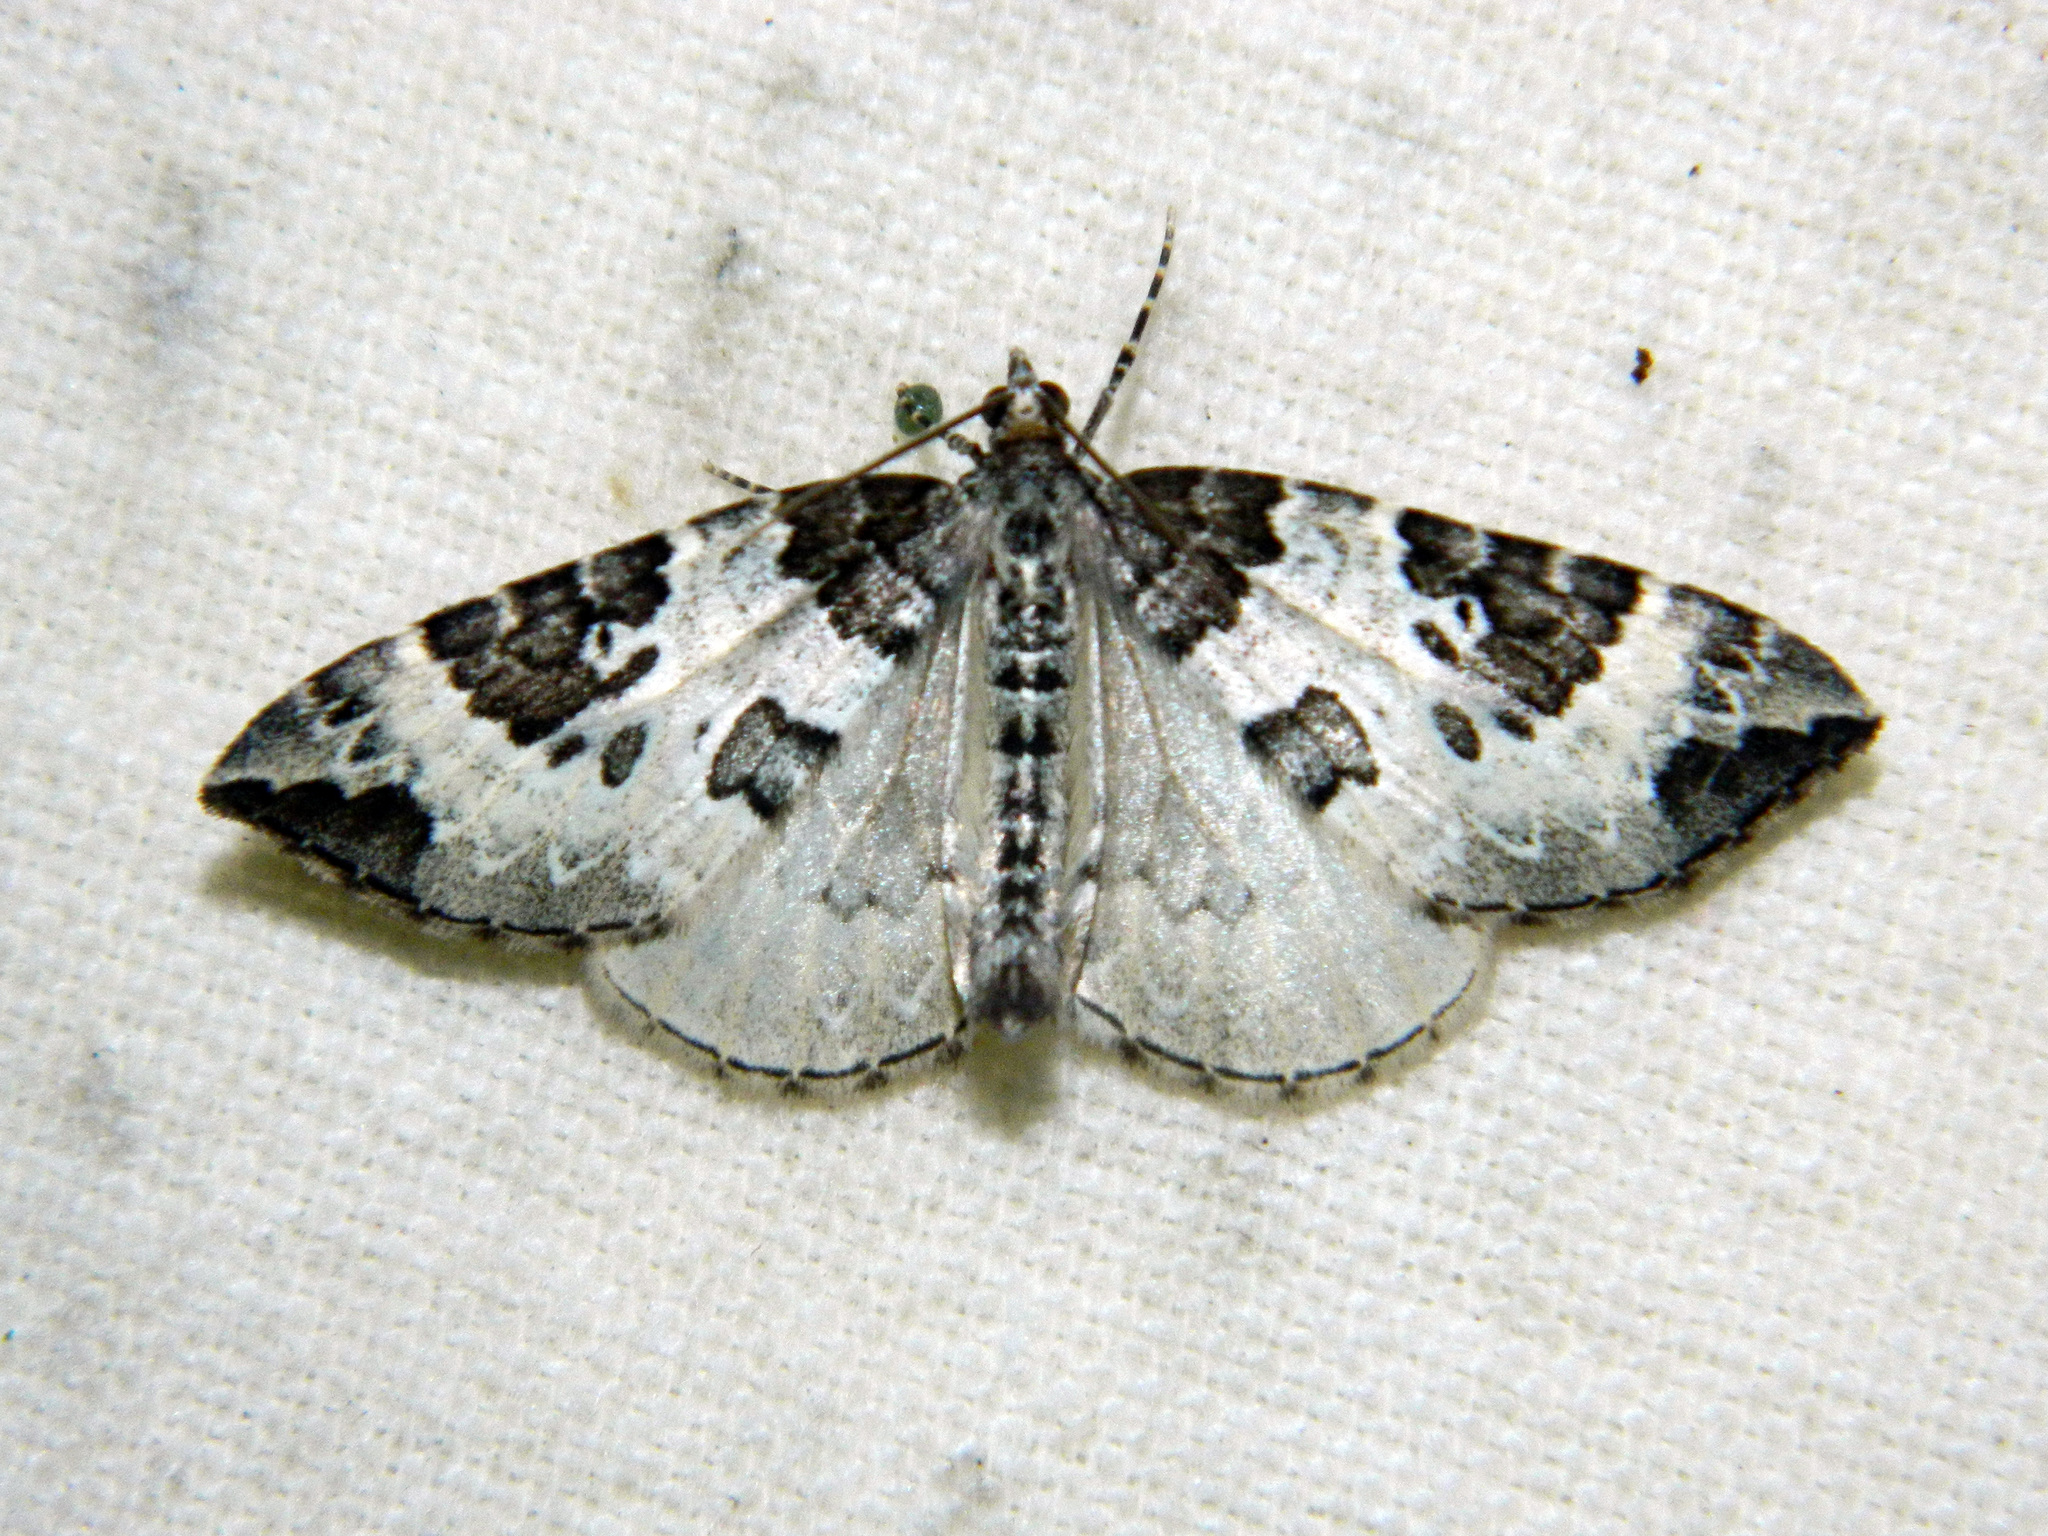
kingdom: Animalia
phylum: Arthropoda
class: Insecta
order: Lepidoptera
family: Geometridae
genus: Eulithis
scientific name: Eulithis explanata
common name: White eulithis
